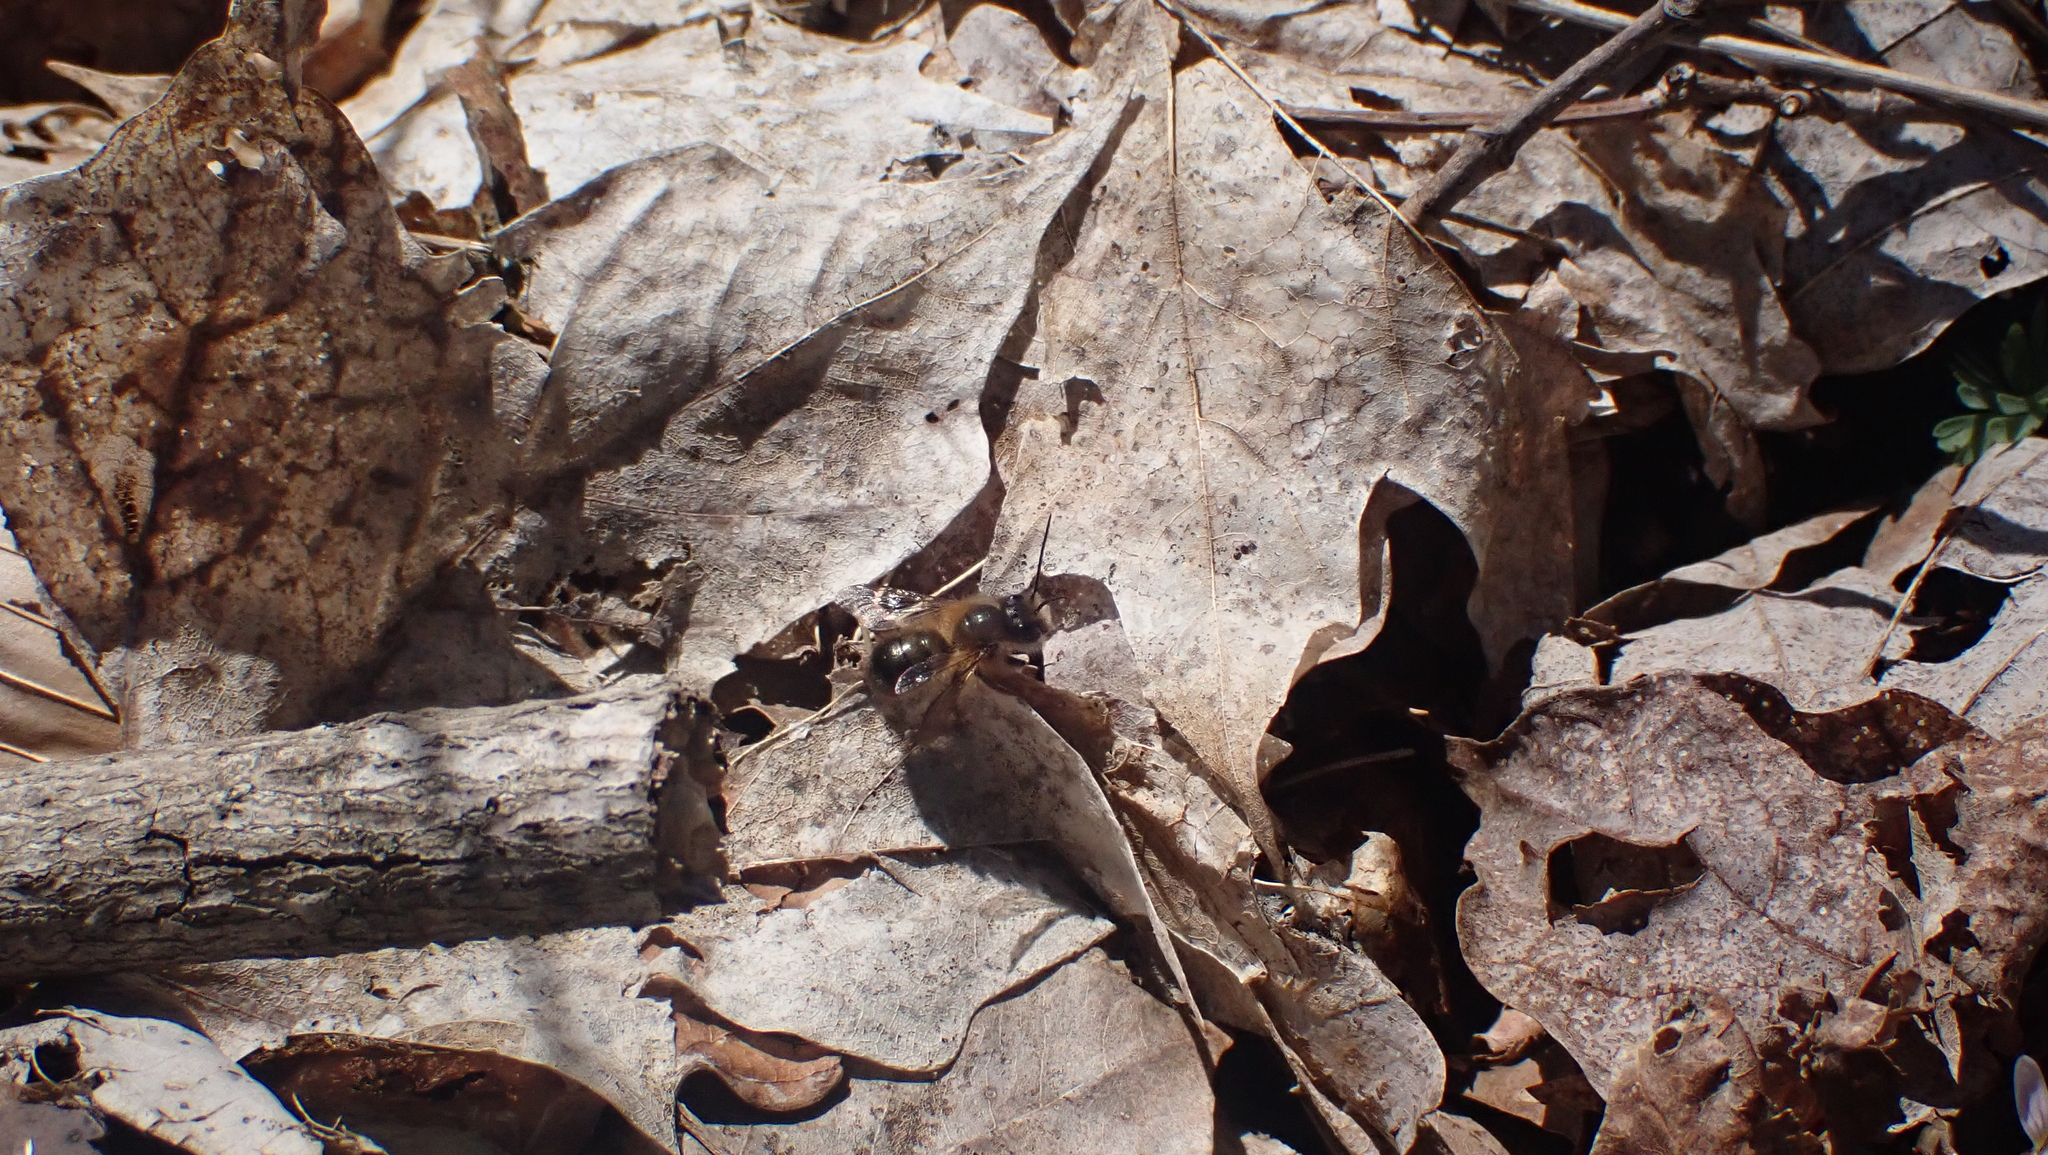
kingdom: Animalia
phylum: Arthropoda
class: Insecta
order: Hymenoptera
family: Megachilidae
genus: Osmia
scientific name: Osmia taurus
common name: Taurus mason bee
